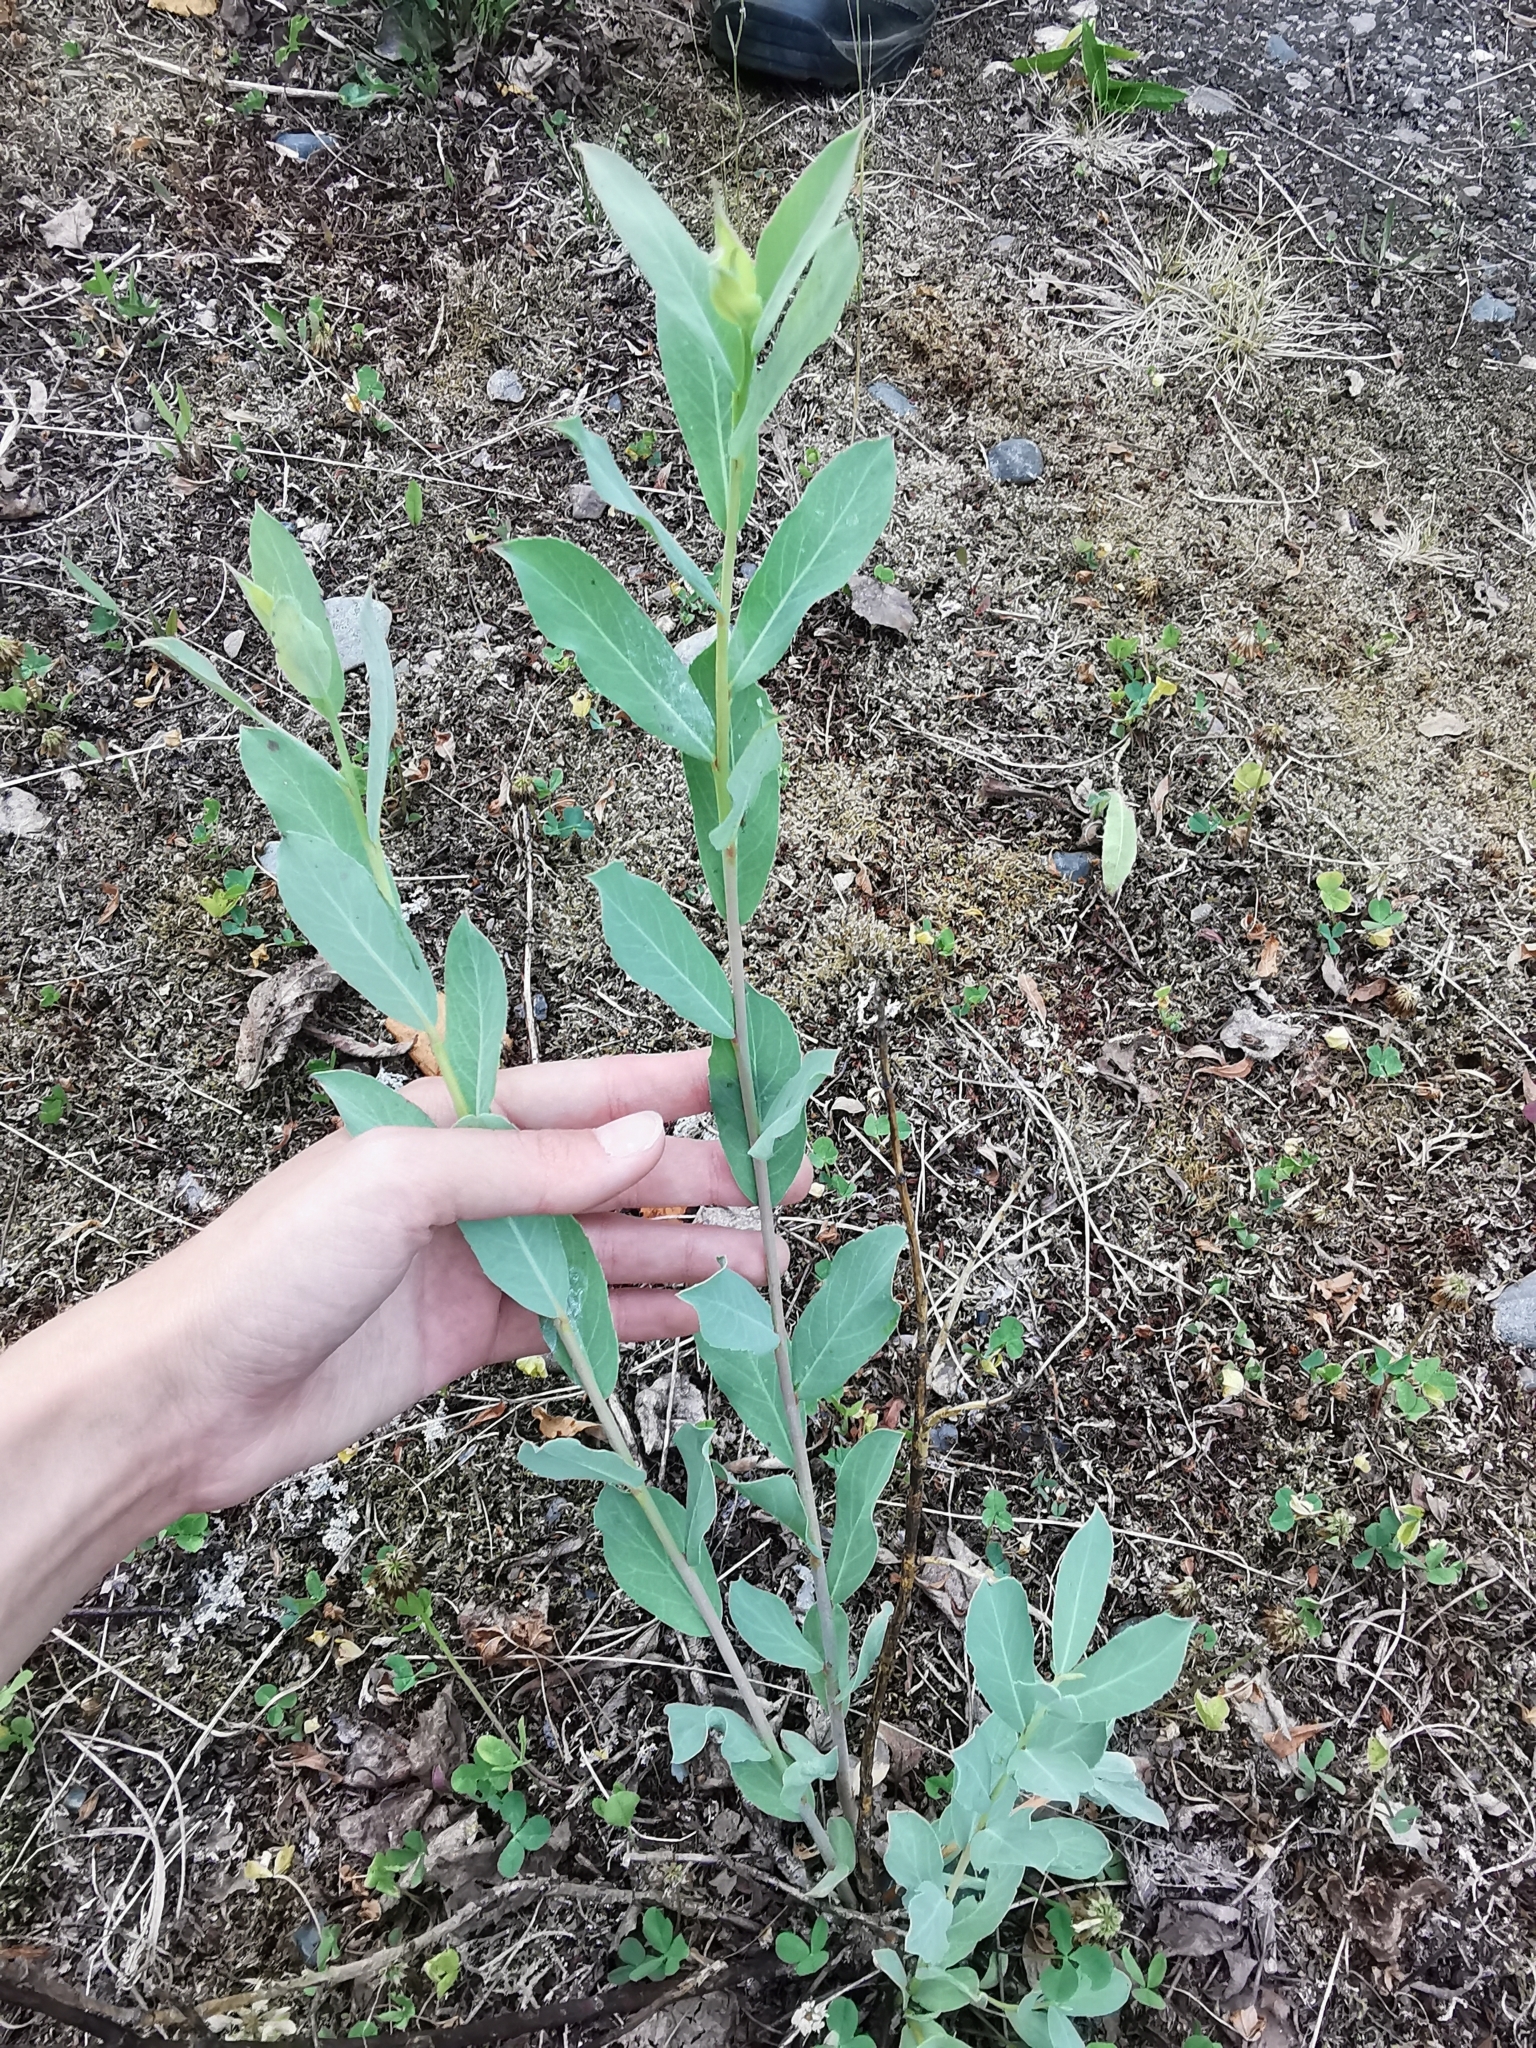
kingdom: Plantae
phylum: Tracheophyta
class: Magnoliopsida
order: Malpighiales
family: Salicaceae
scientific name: Salicaceae
